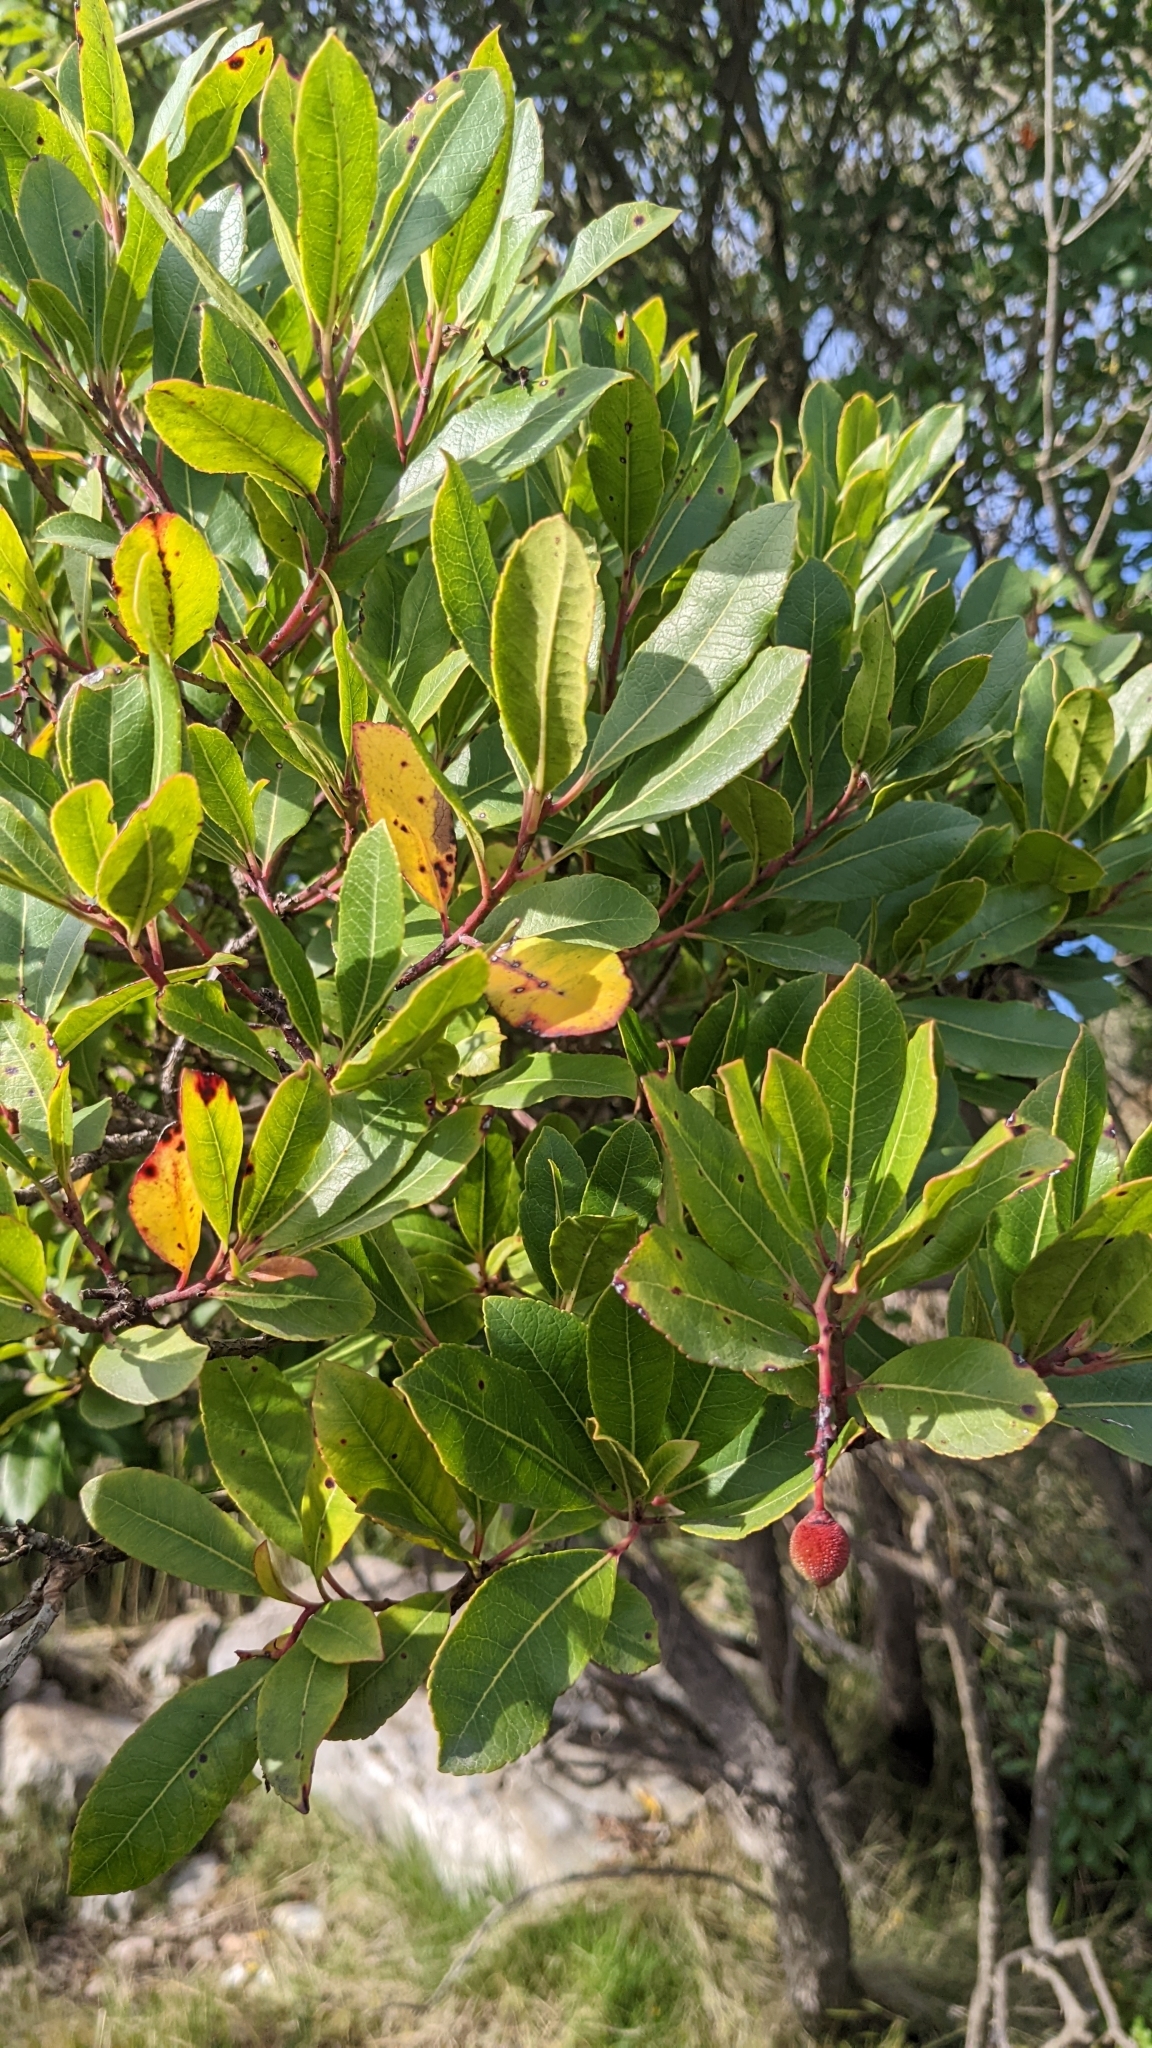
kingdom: Plantae
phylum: Tracheophyta
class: Magnoliopsida
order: Ericales
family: Ericaceae
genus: Arbutus
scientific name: Arbutus unedo
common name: Strawberry-tree
